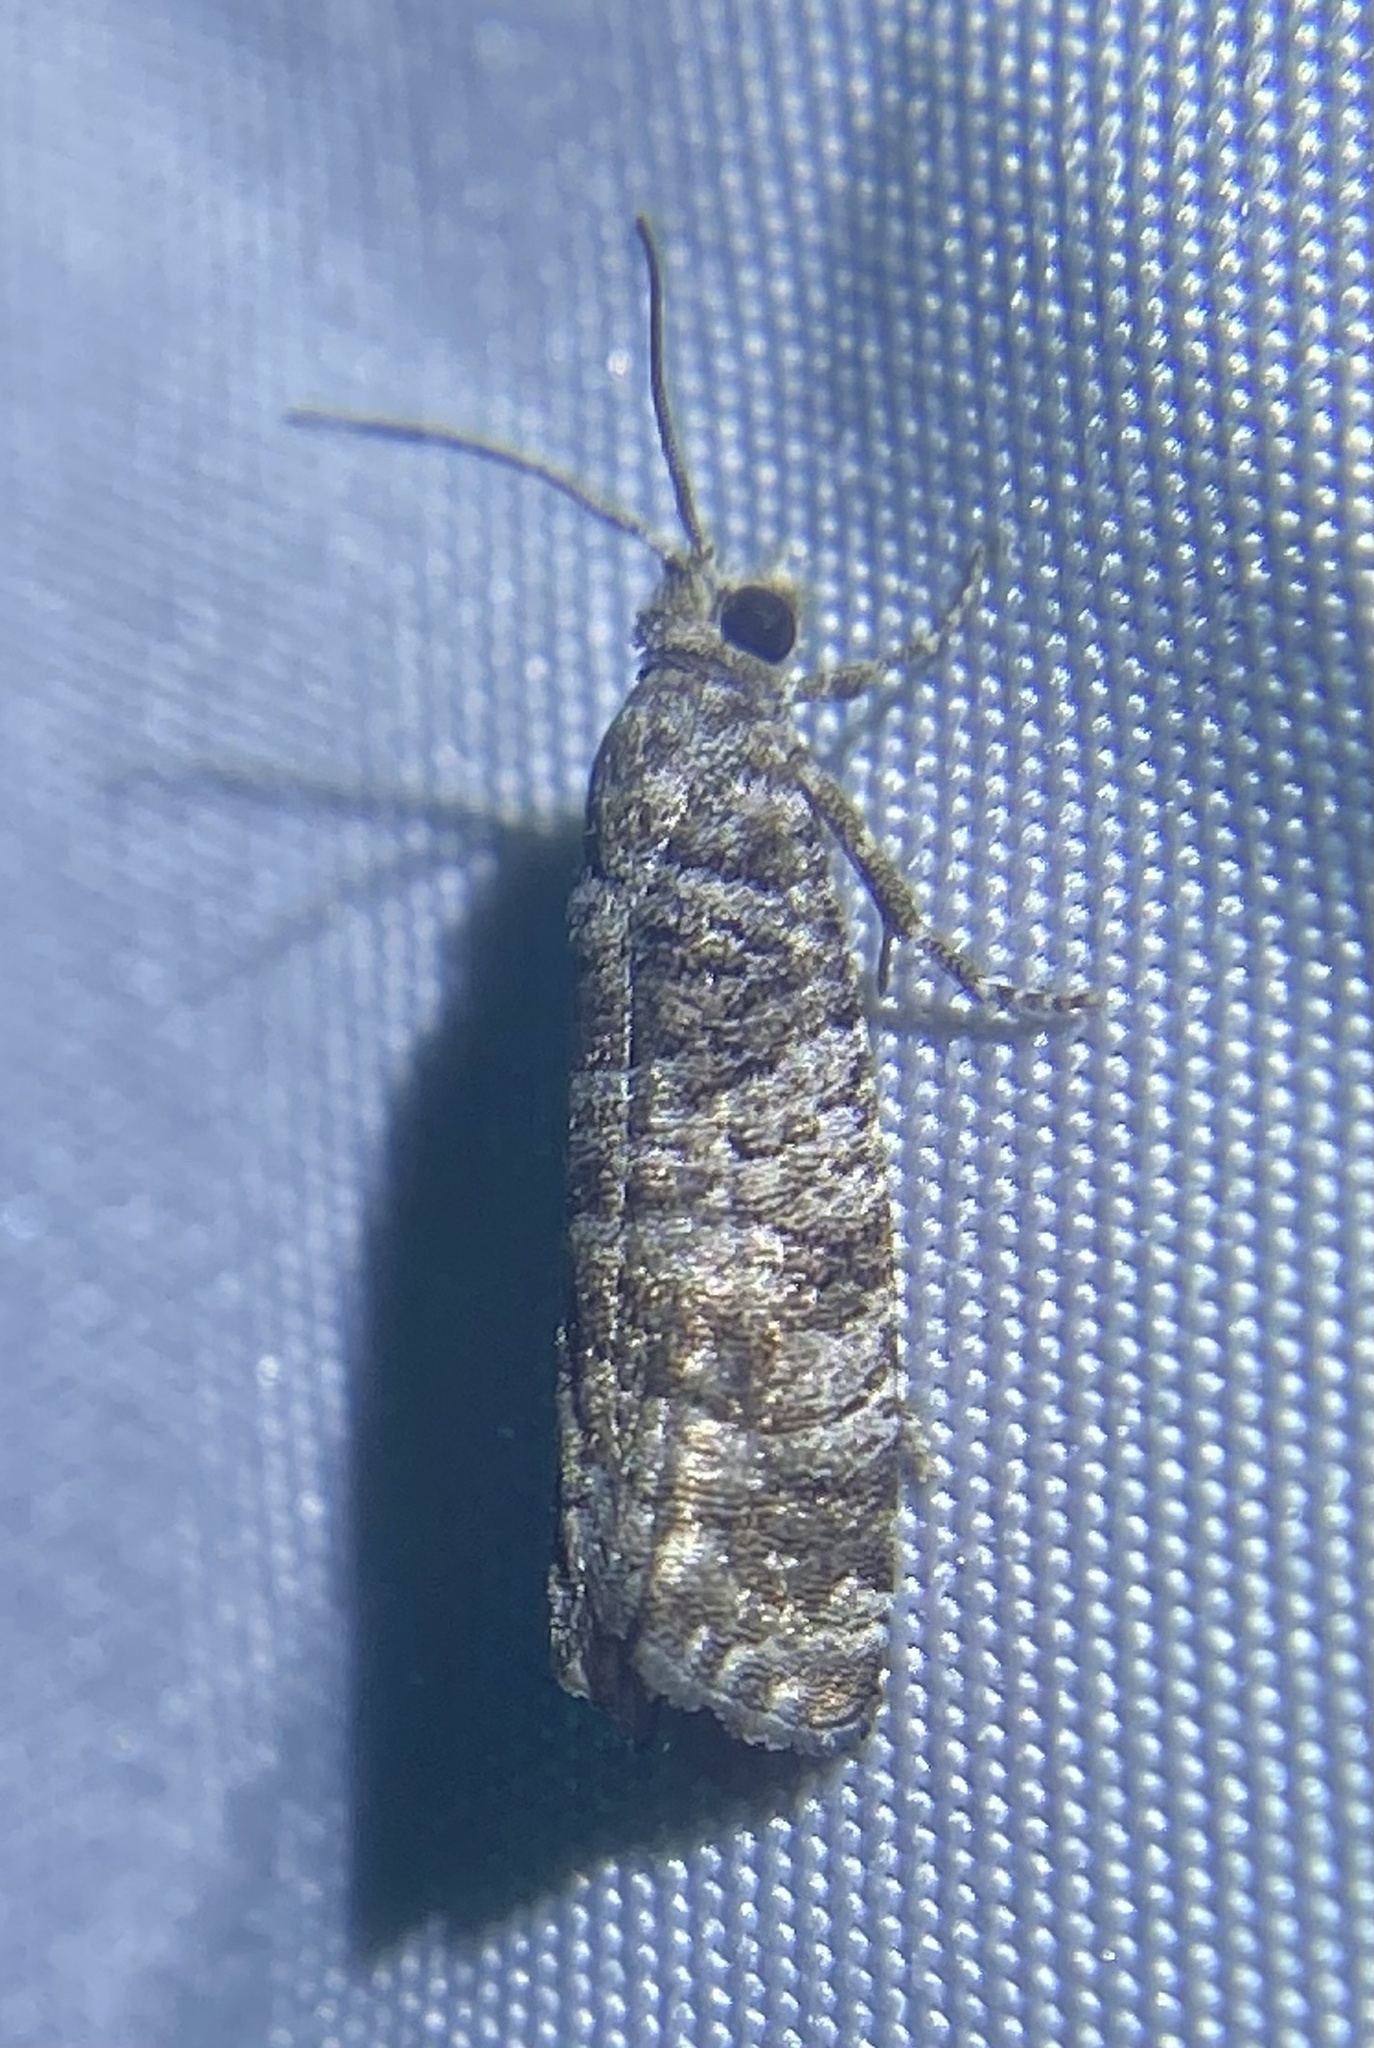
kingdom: Animalia
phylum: Arthropoda
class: Insecta
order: Lepidoptera
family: Tortricidae
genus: Retinia
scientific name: Retinia gemistrigulana
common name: Gray retinia moth
